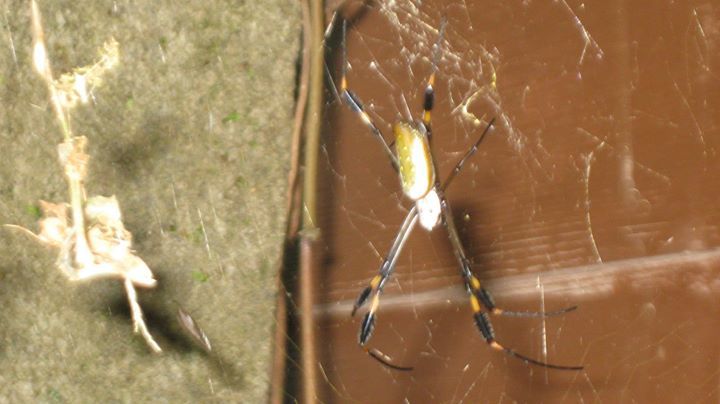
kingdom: Animalia
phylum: Arthropoda
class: Arachnida
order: Araneae
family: Araneidae
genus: Trichonephila
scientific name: Trichonephila clavipes
